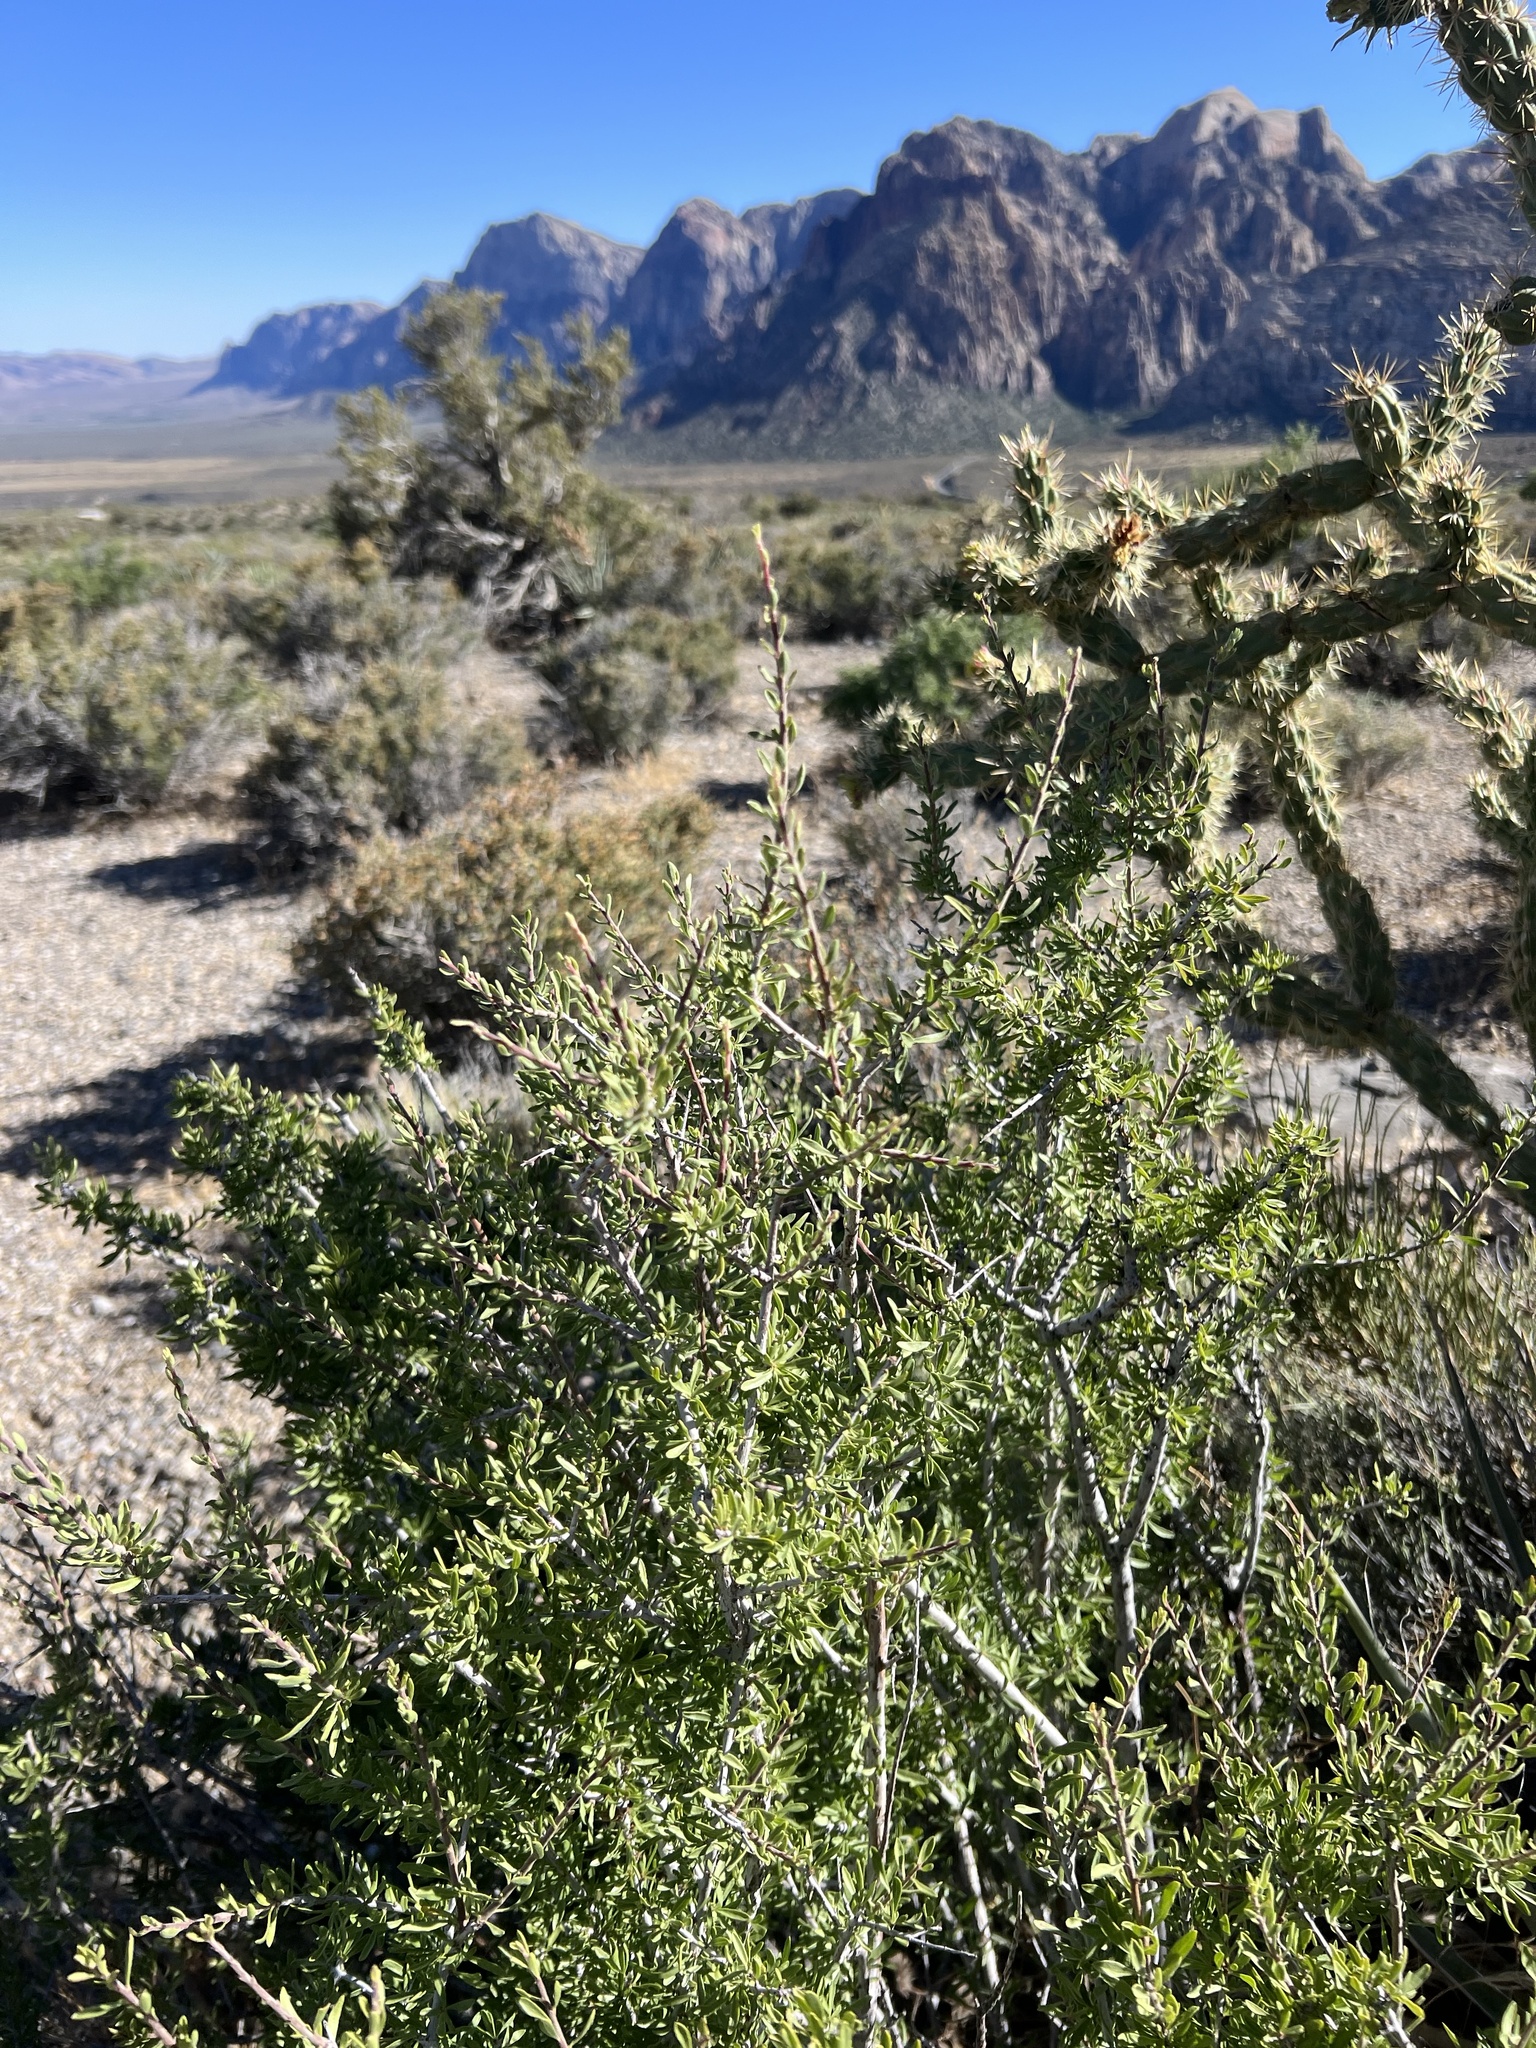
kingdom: Plantae
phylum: Tracheophyta
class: Magnoliopsida
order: Rosales
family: Rosaceae
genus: Prunus
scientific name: Prunus fasciculata
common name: Desert almond
